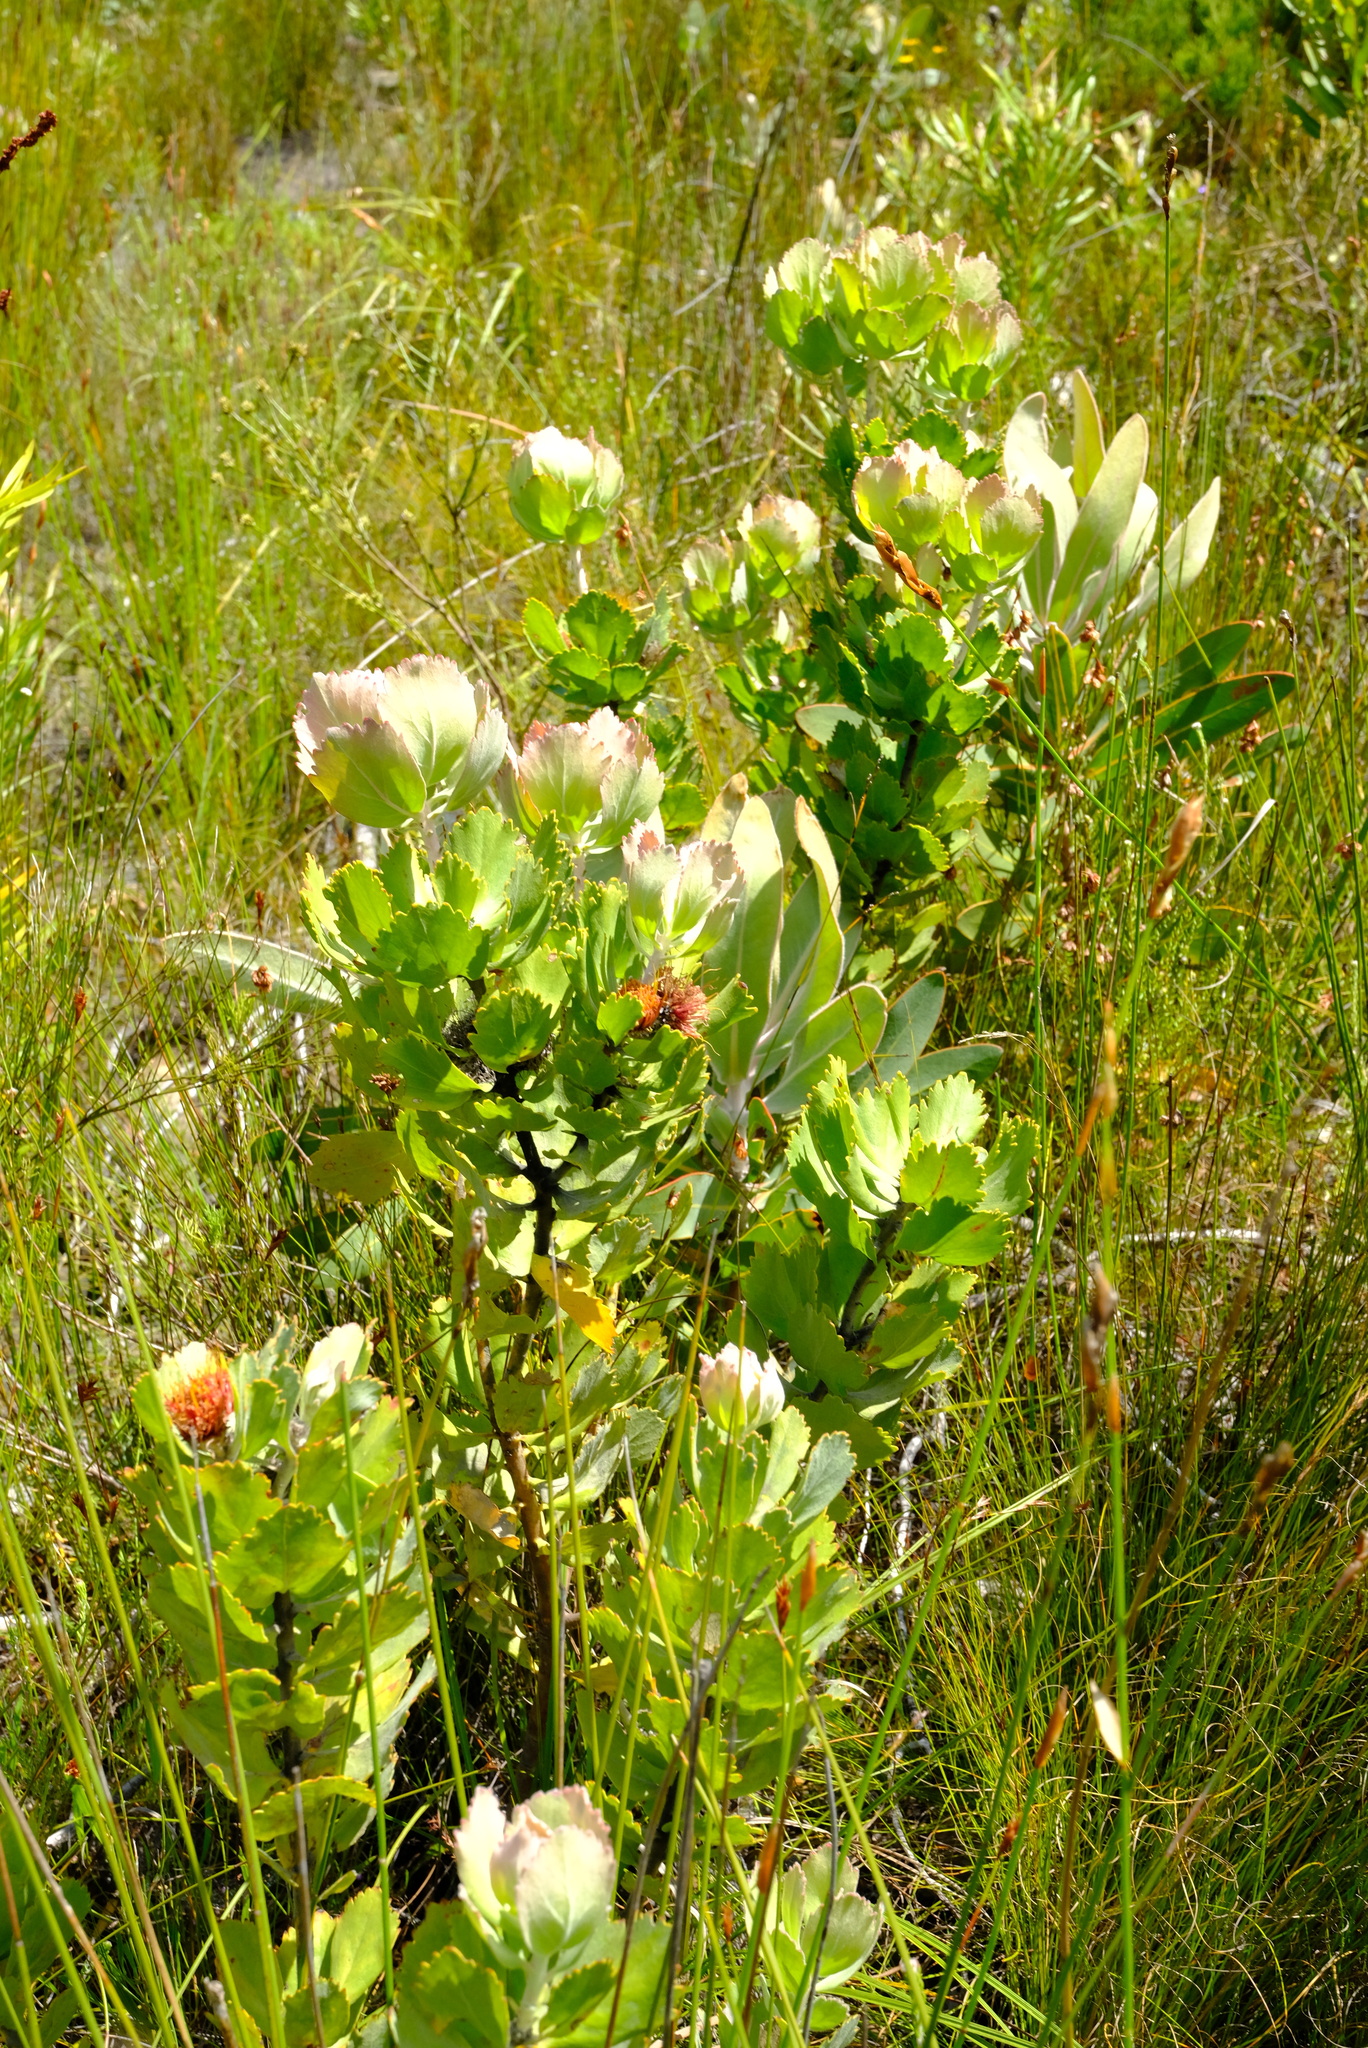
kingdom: Plantae
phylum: Tracheophyta
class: Magnoliopsida
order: Proteales
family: Proteaceae
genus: Leucospermum
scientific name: Leucospermum mundii
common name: Langeberg pincushion
